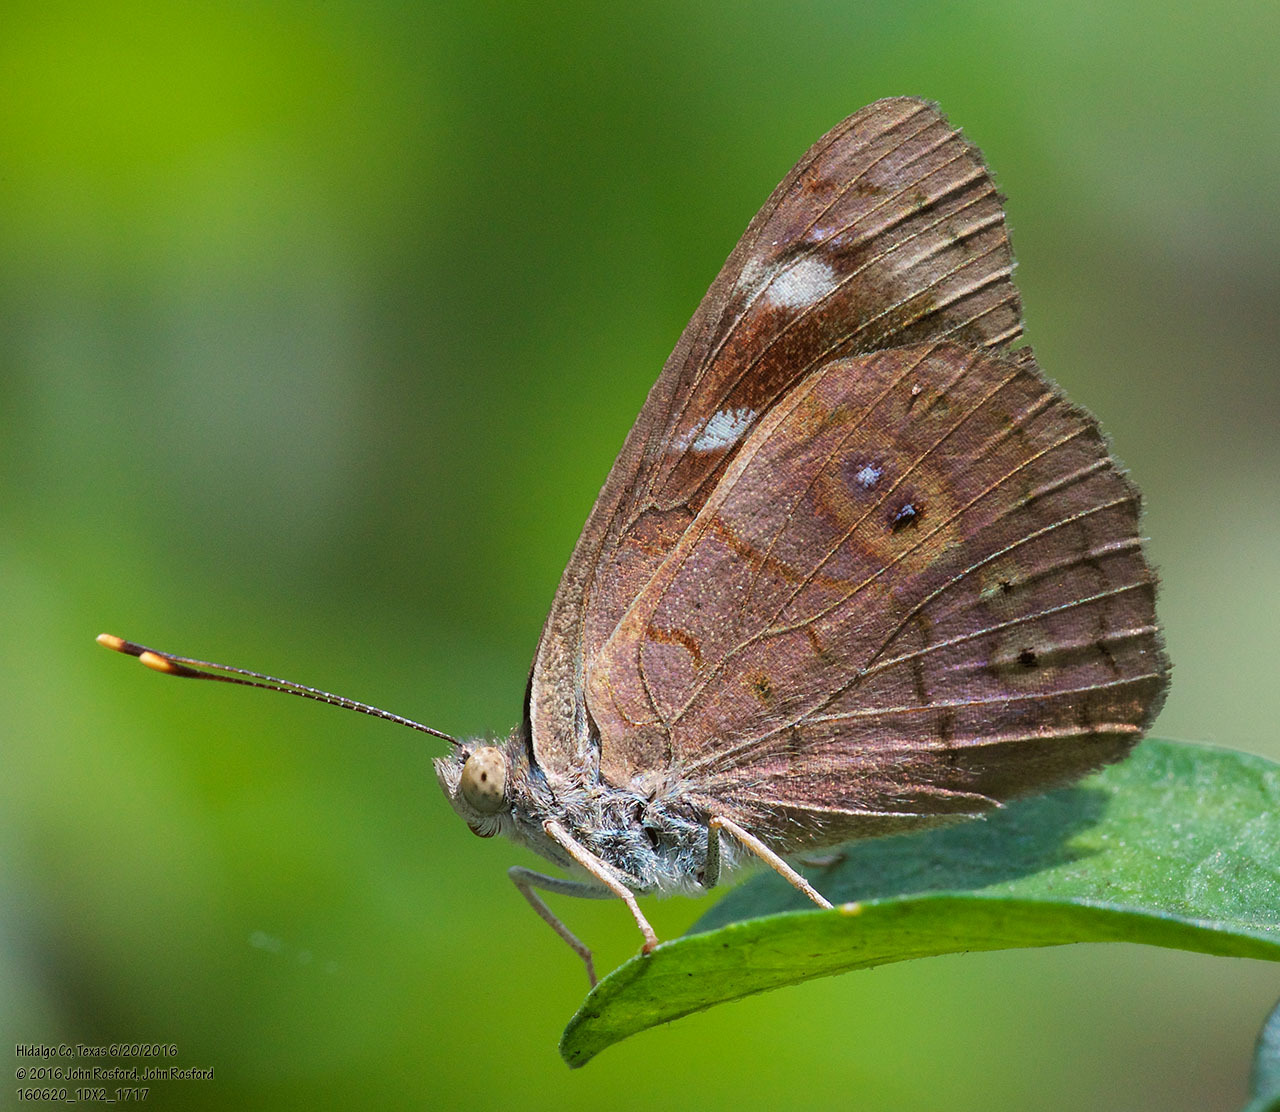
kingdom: Animalia
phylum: Arthropoda
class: Insecta
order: Lepidoptera
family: Nymphalidae
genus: Eunica
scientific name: Eunica monima
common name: Dingy purplewing
